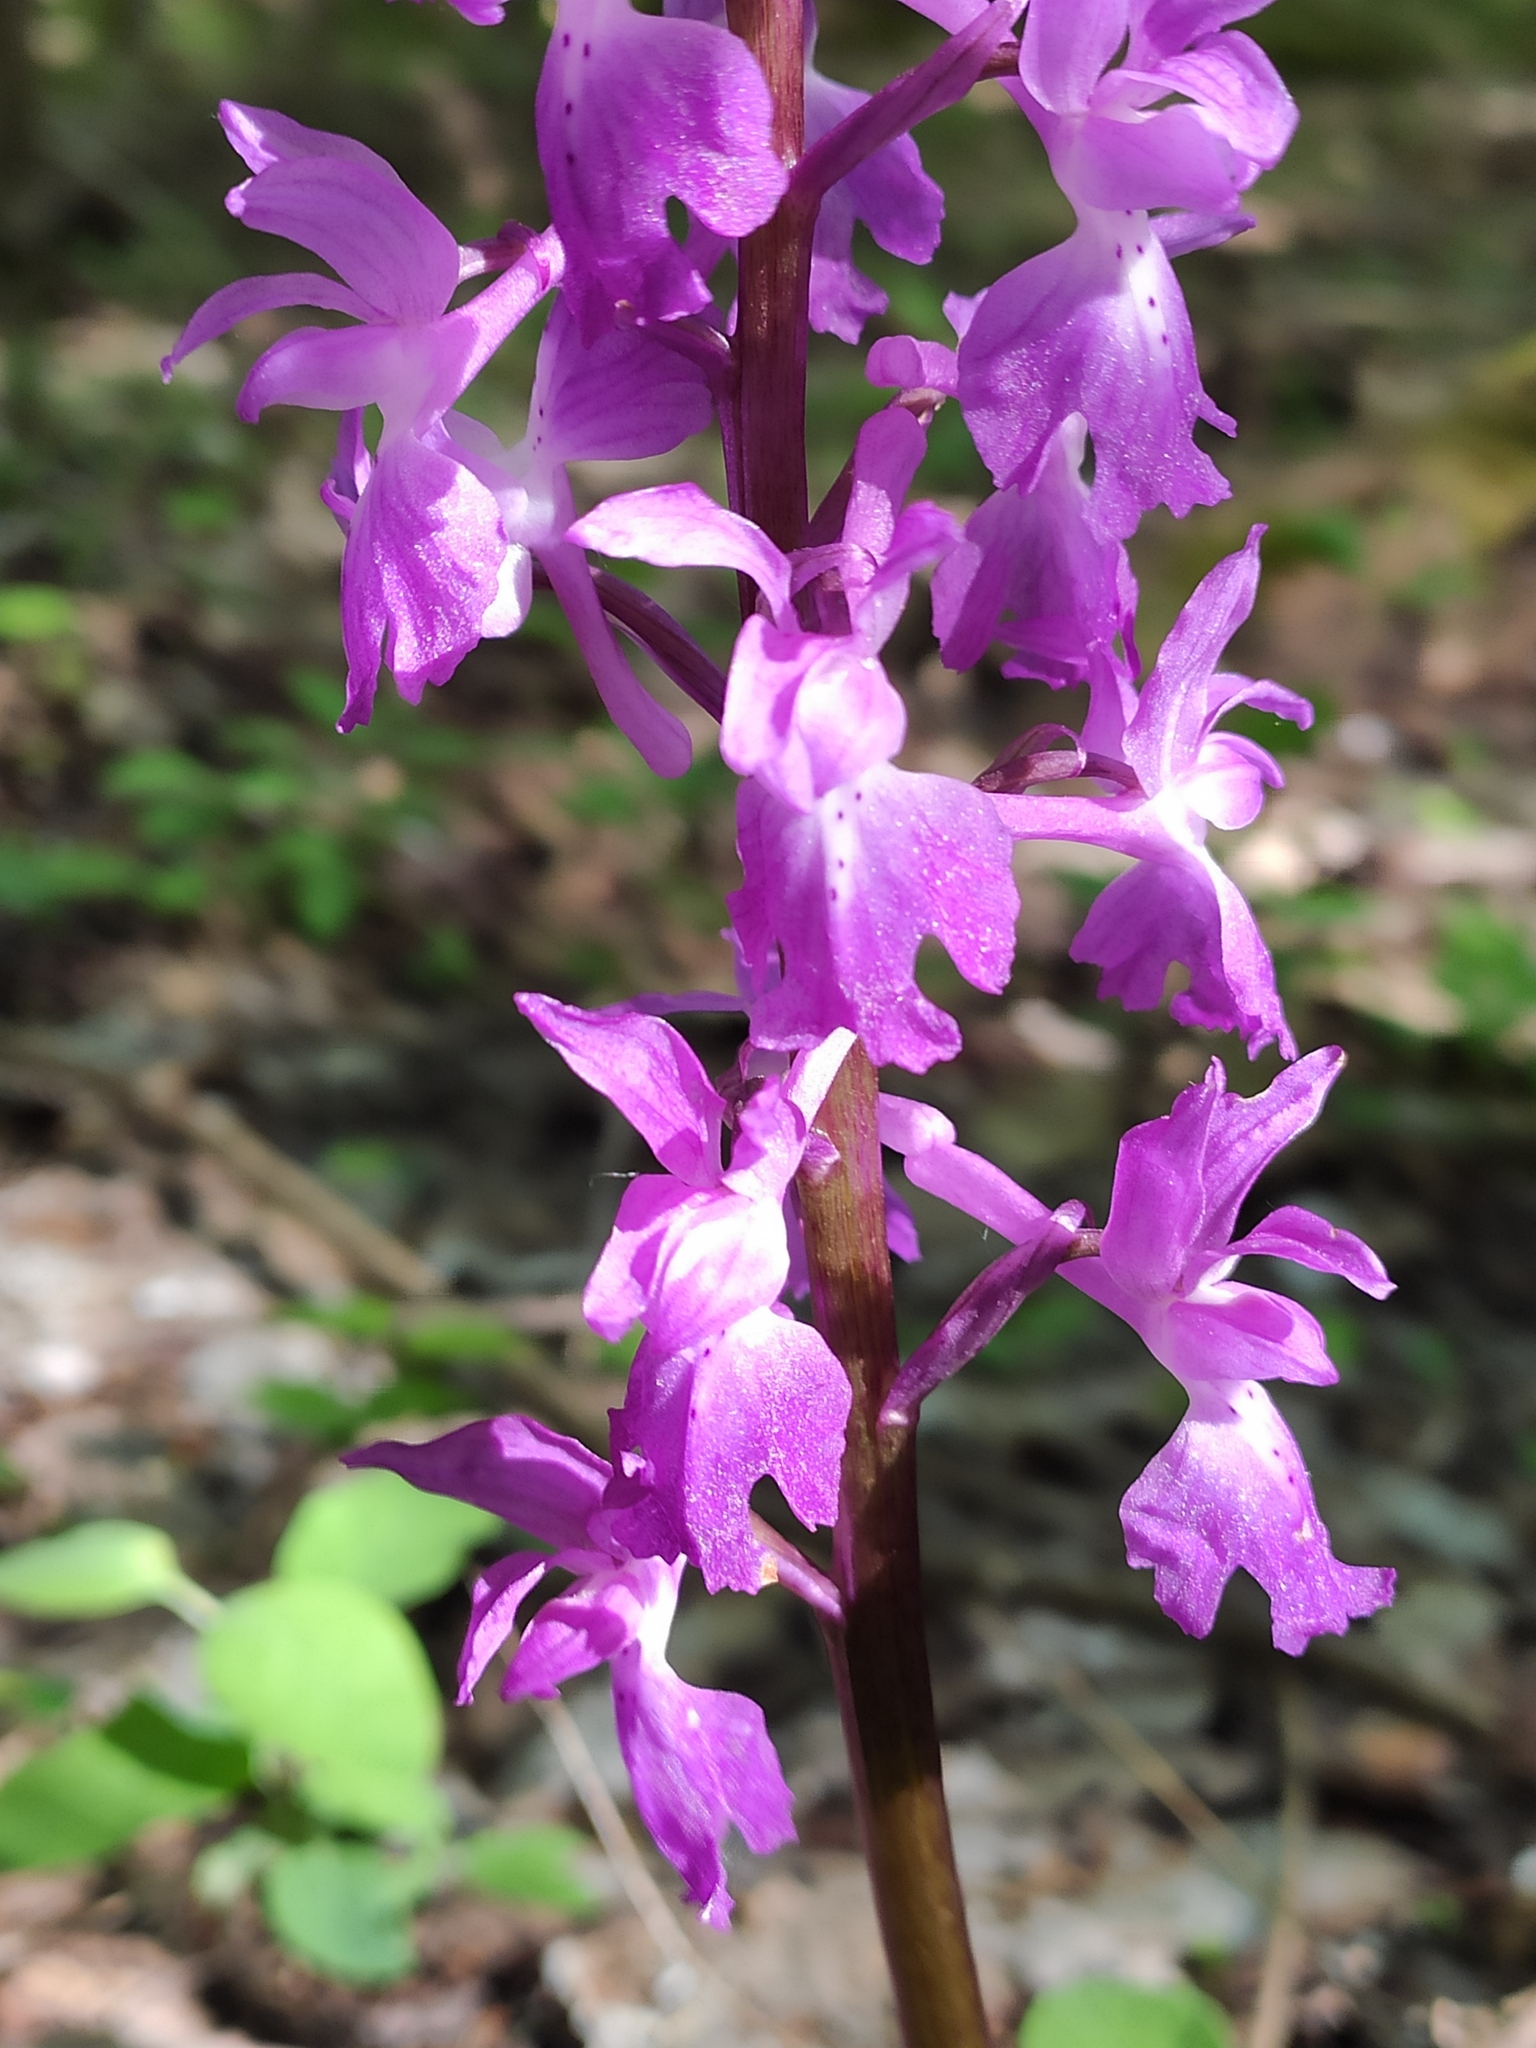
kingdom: Plantae
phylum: Tracheophyta
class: Liliopsida
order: Asparagales
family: Orchidaceae
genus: Orchis
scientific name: Orchis mascula
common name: Early-purple orchid
